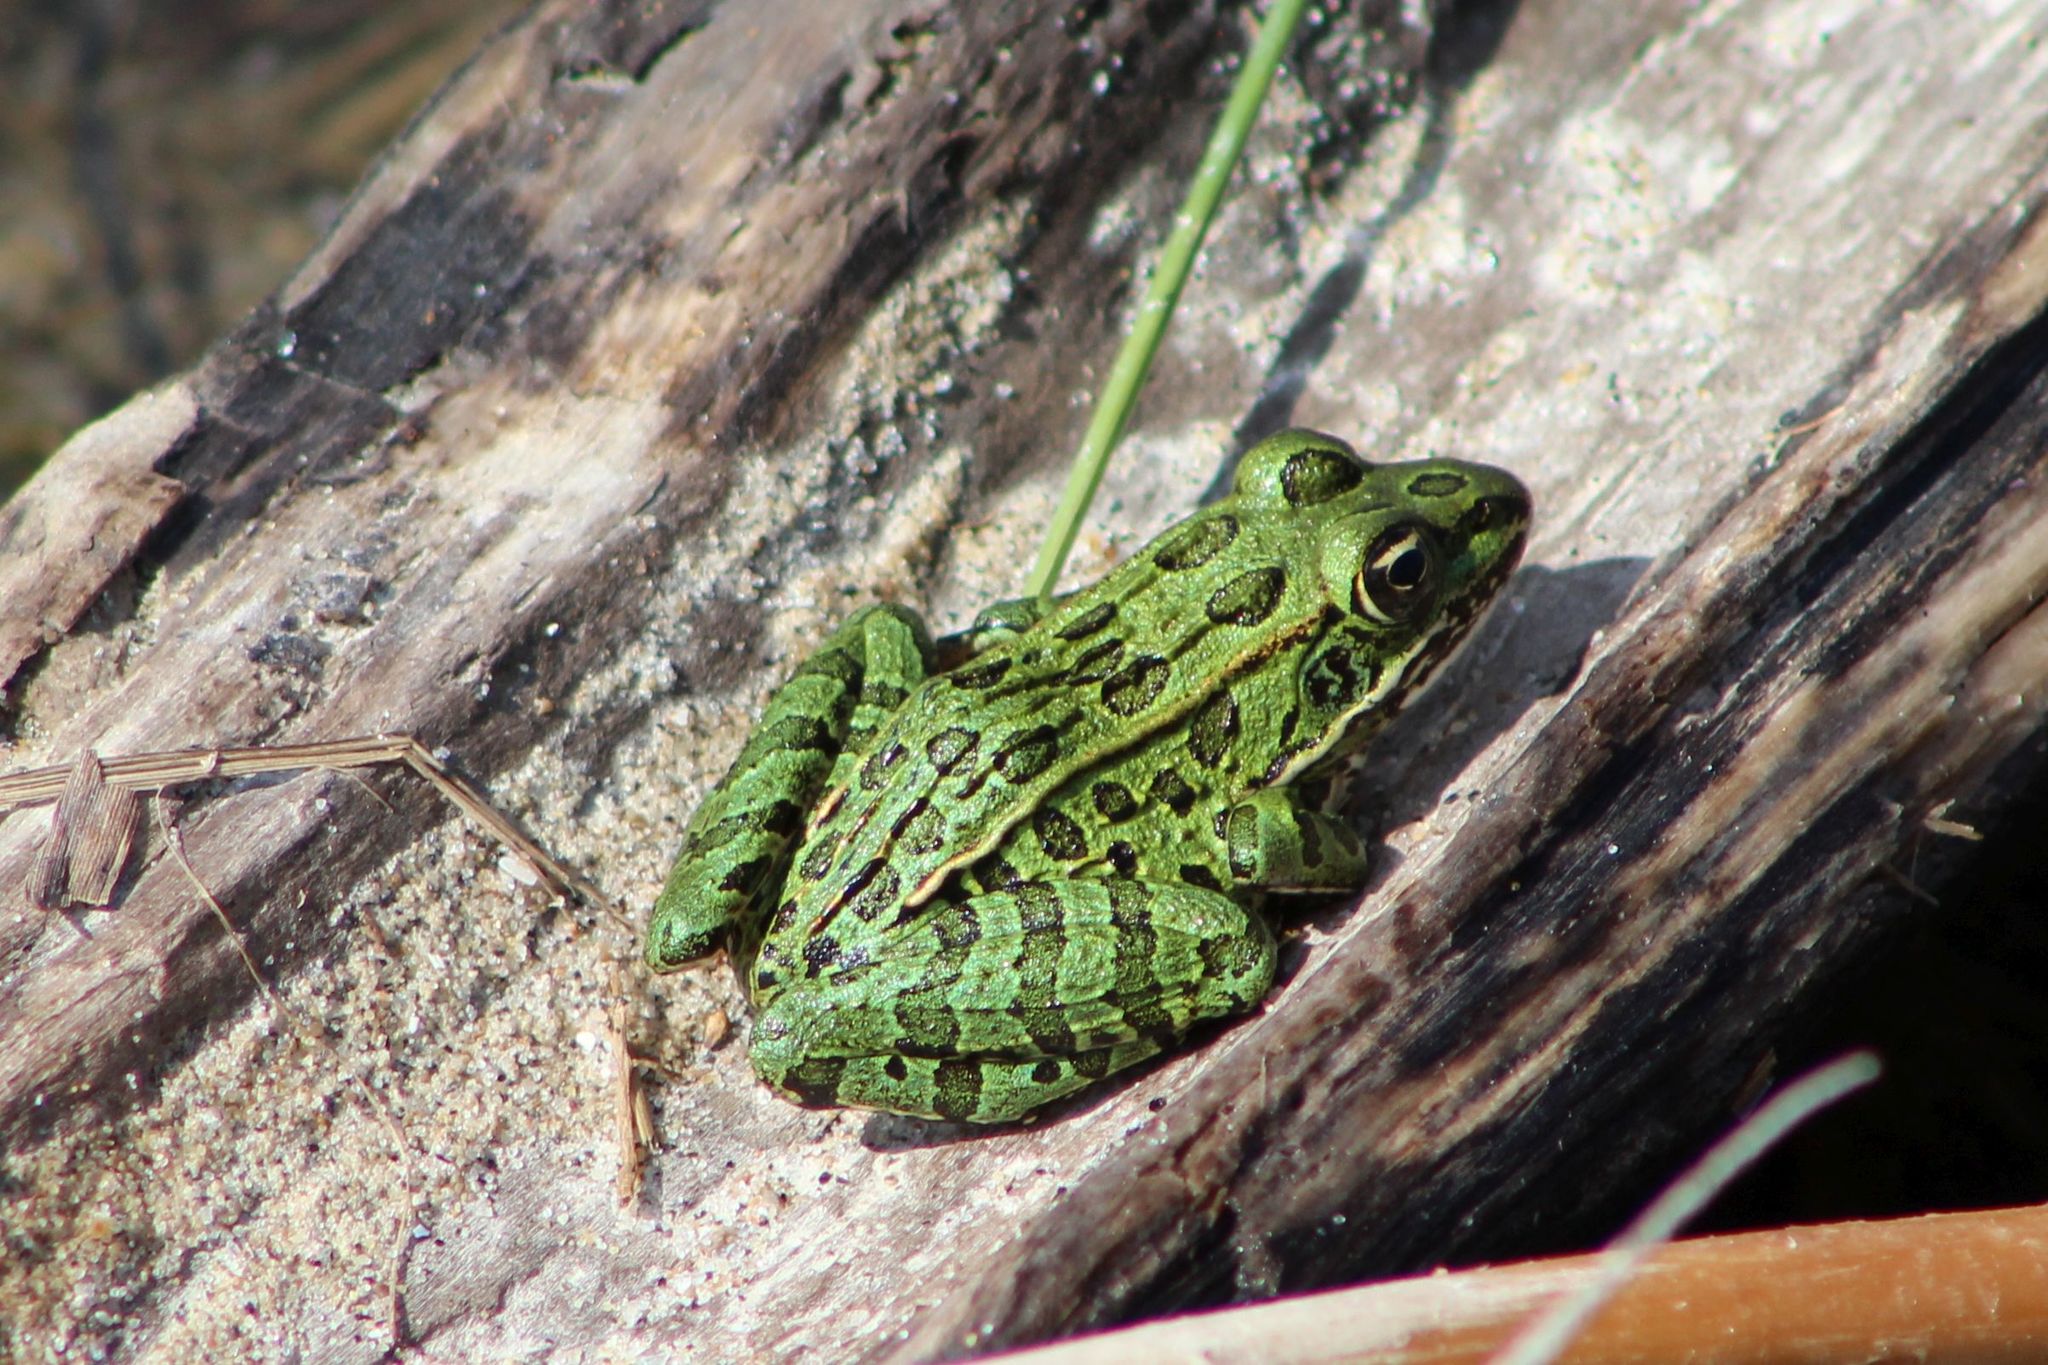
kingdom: Animalia
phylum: Chordata
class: Amphibia
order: Anura
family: Ranidae
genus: Lithobates
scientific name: Lithobates pipiens
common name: Northern leopard frog
